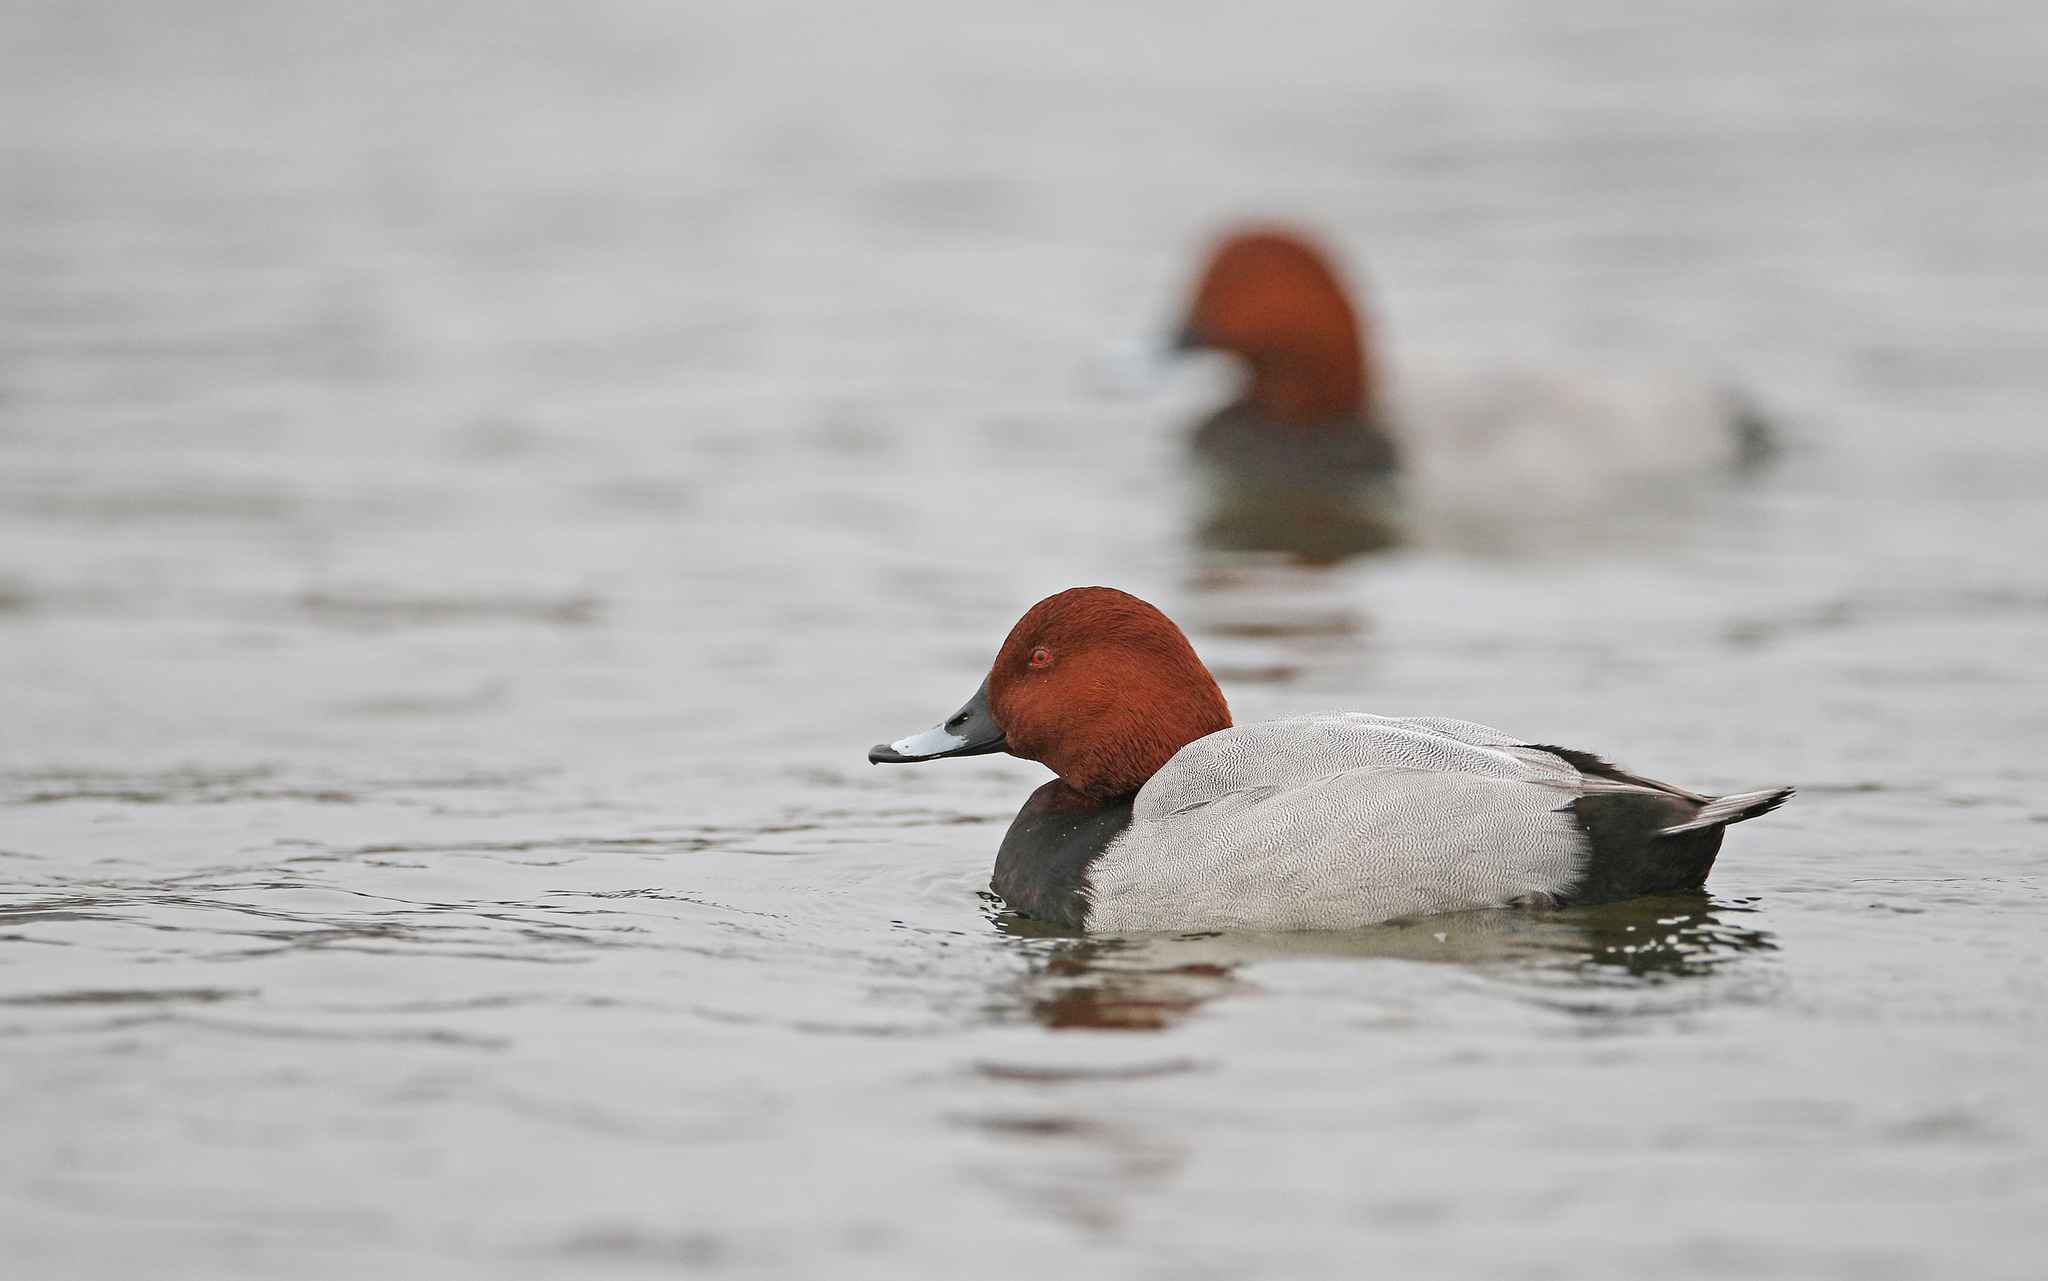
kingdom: Animalia
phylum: Chordata
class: Aves
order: Anseriformes
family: Anatidae
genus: Aythya
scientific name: Aythya ferina
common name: Common pochard
